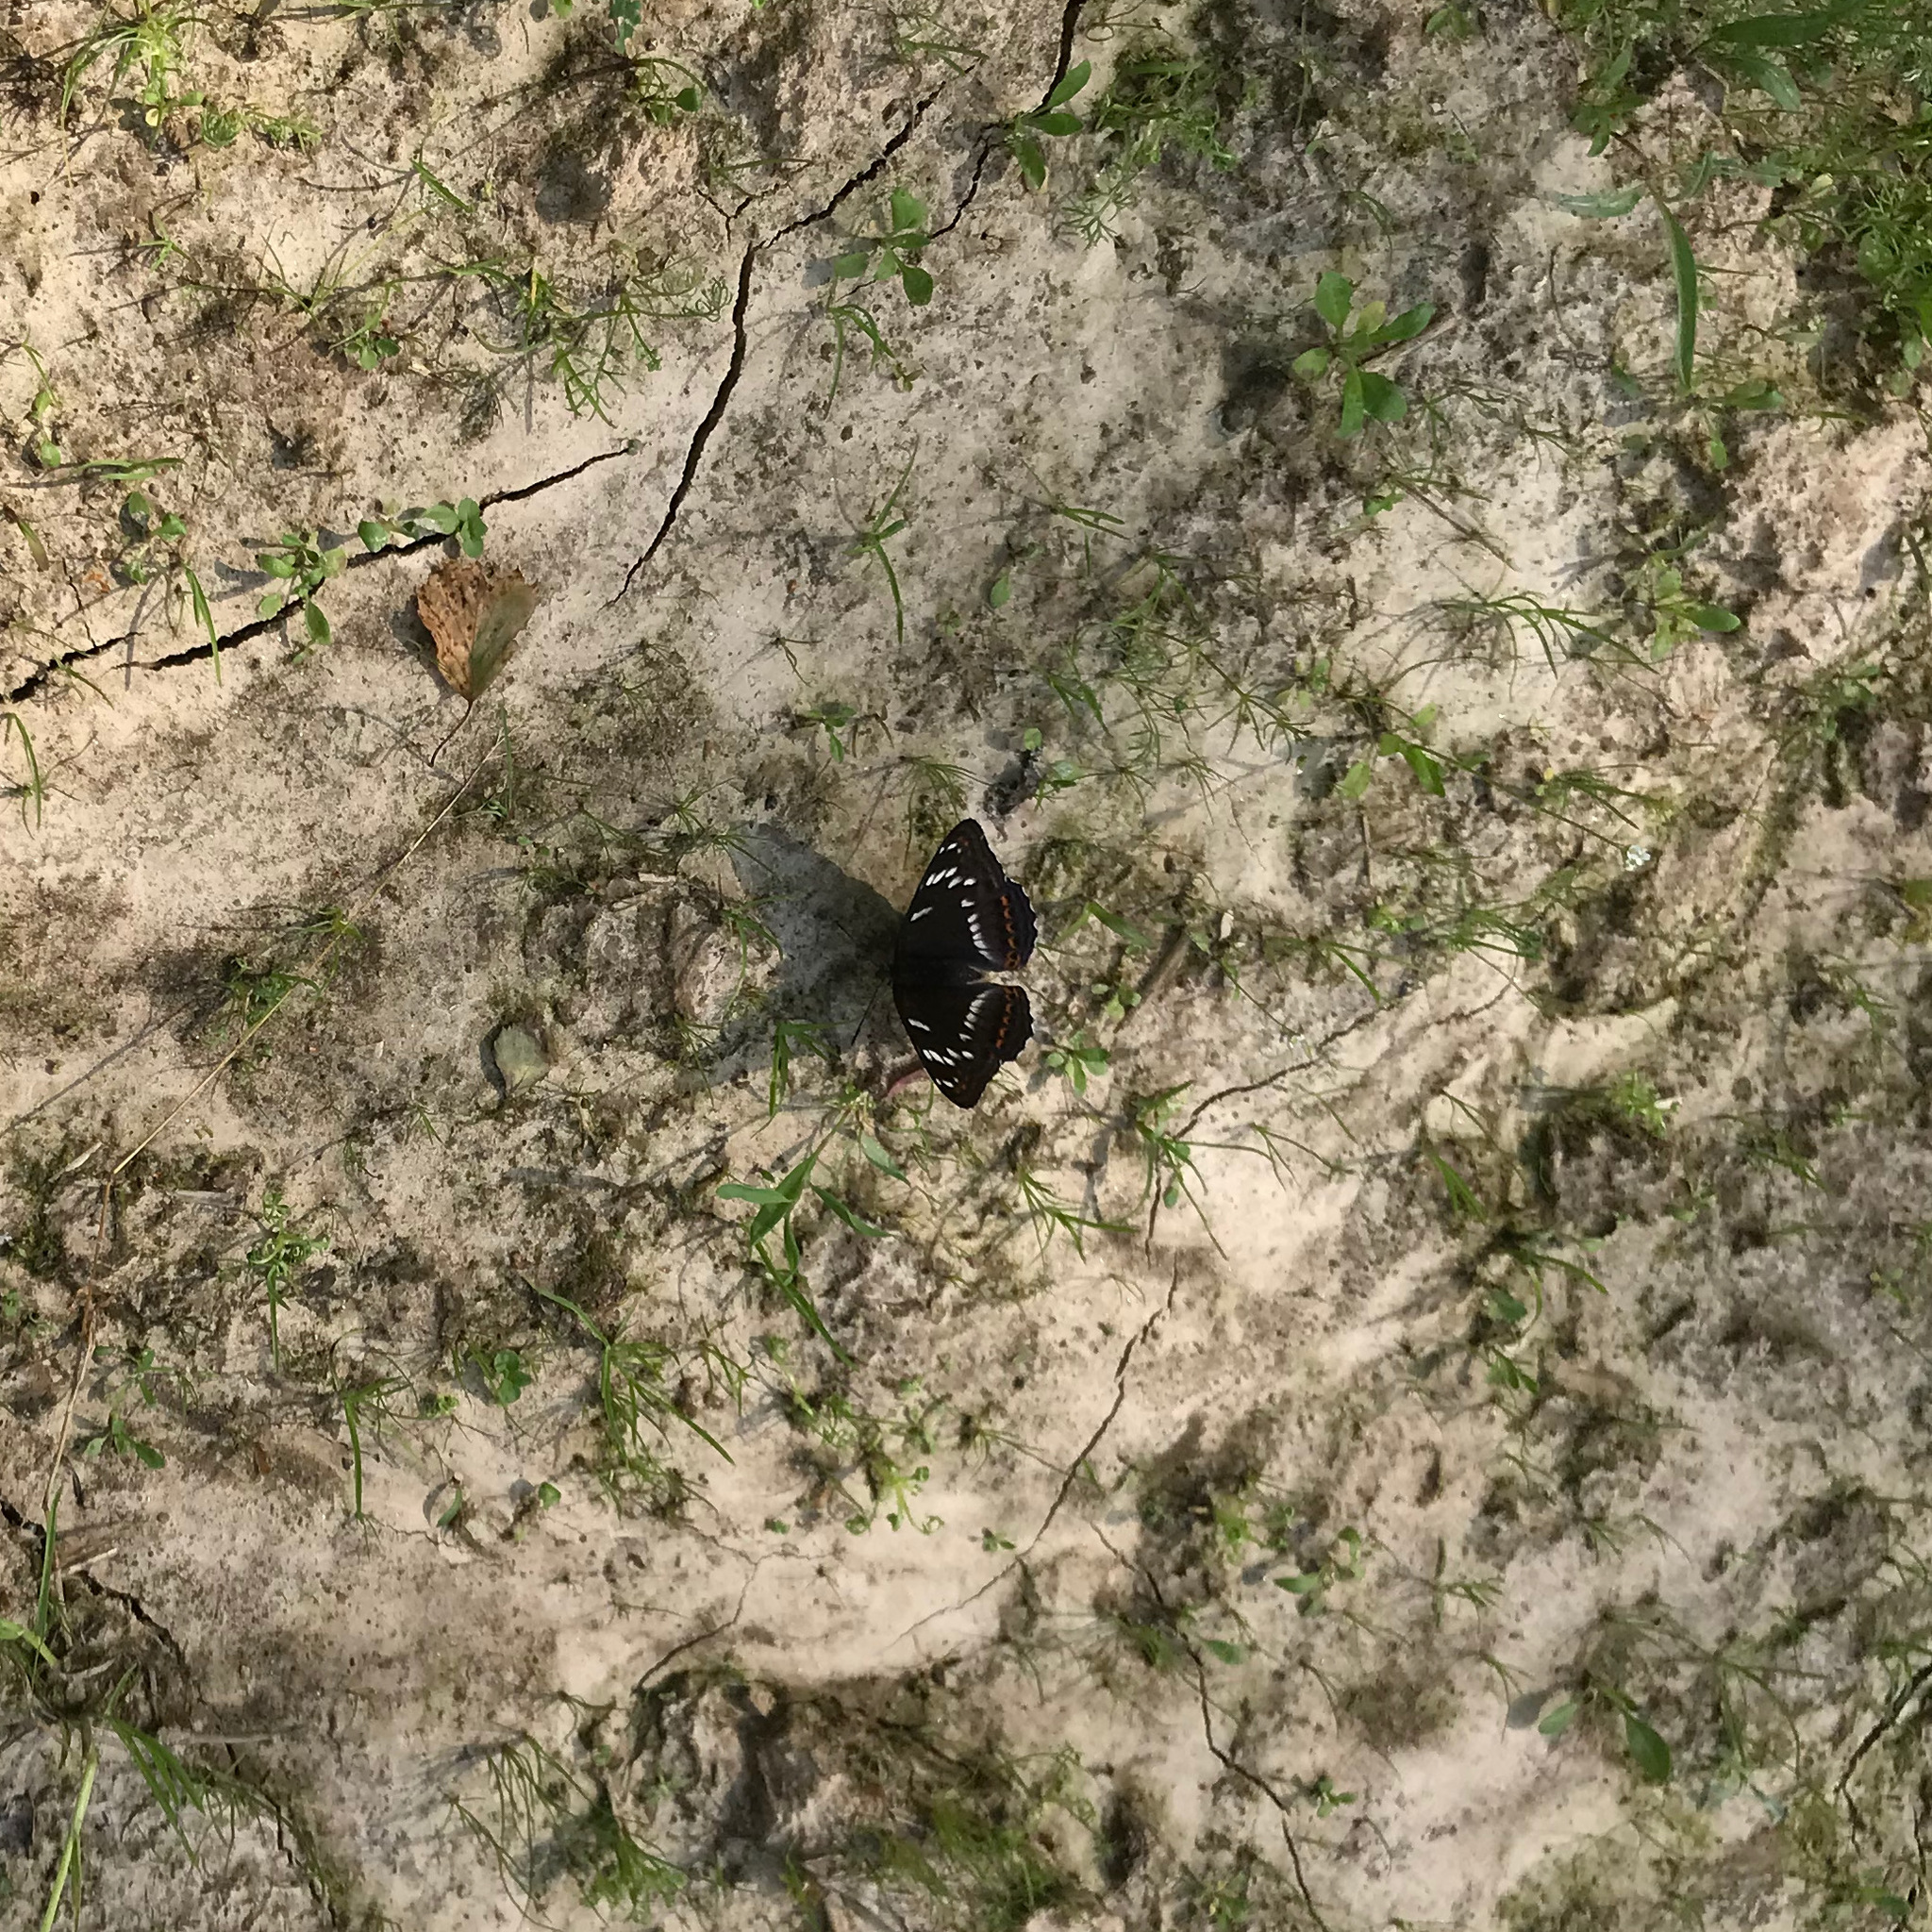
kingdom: Animalia
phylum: Arthropoda
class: Insecta
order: Lepidoptera
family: Nymphalidae
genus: Limenitis
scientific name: Limenitis populi
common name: Poplar admiral
